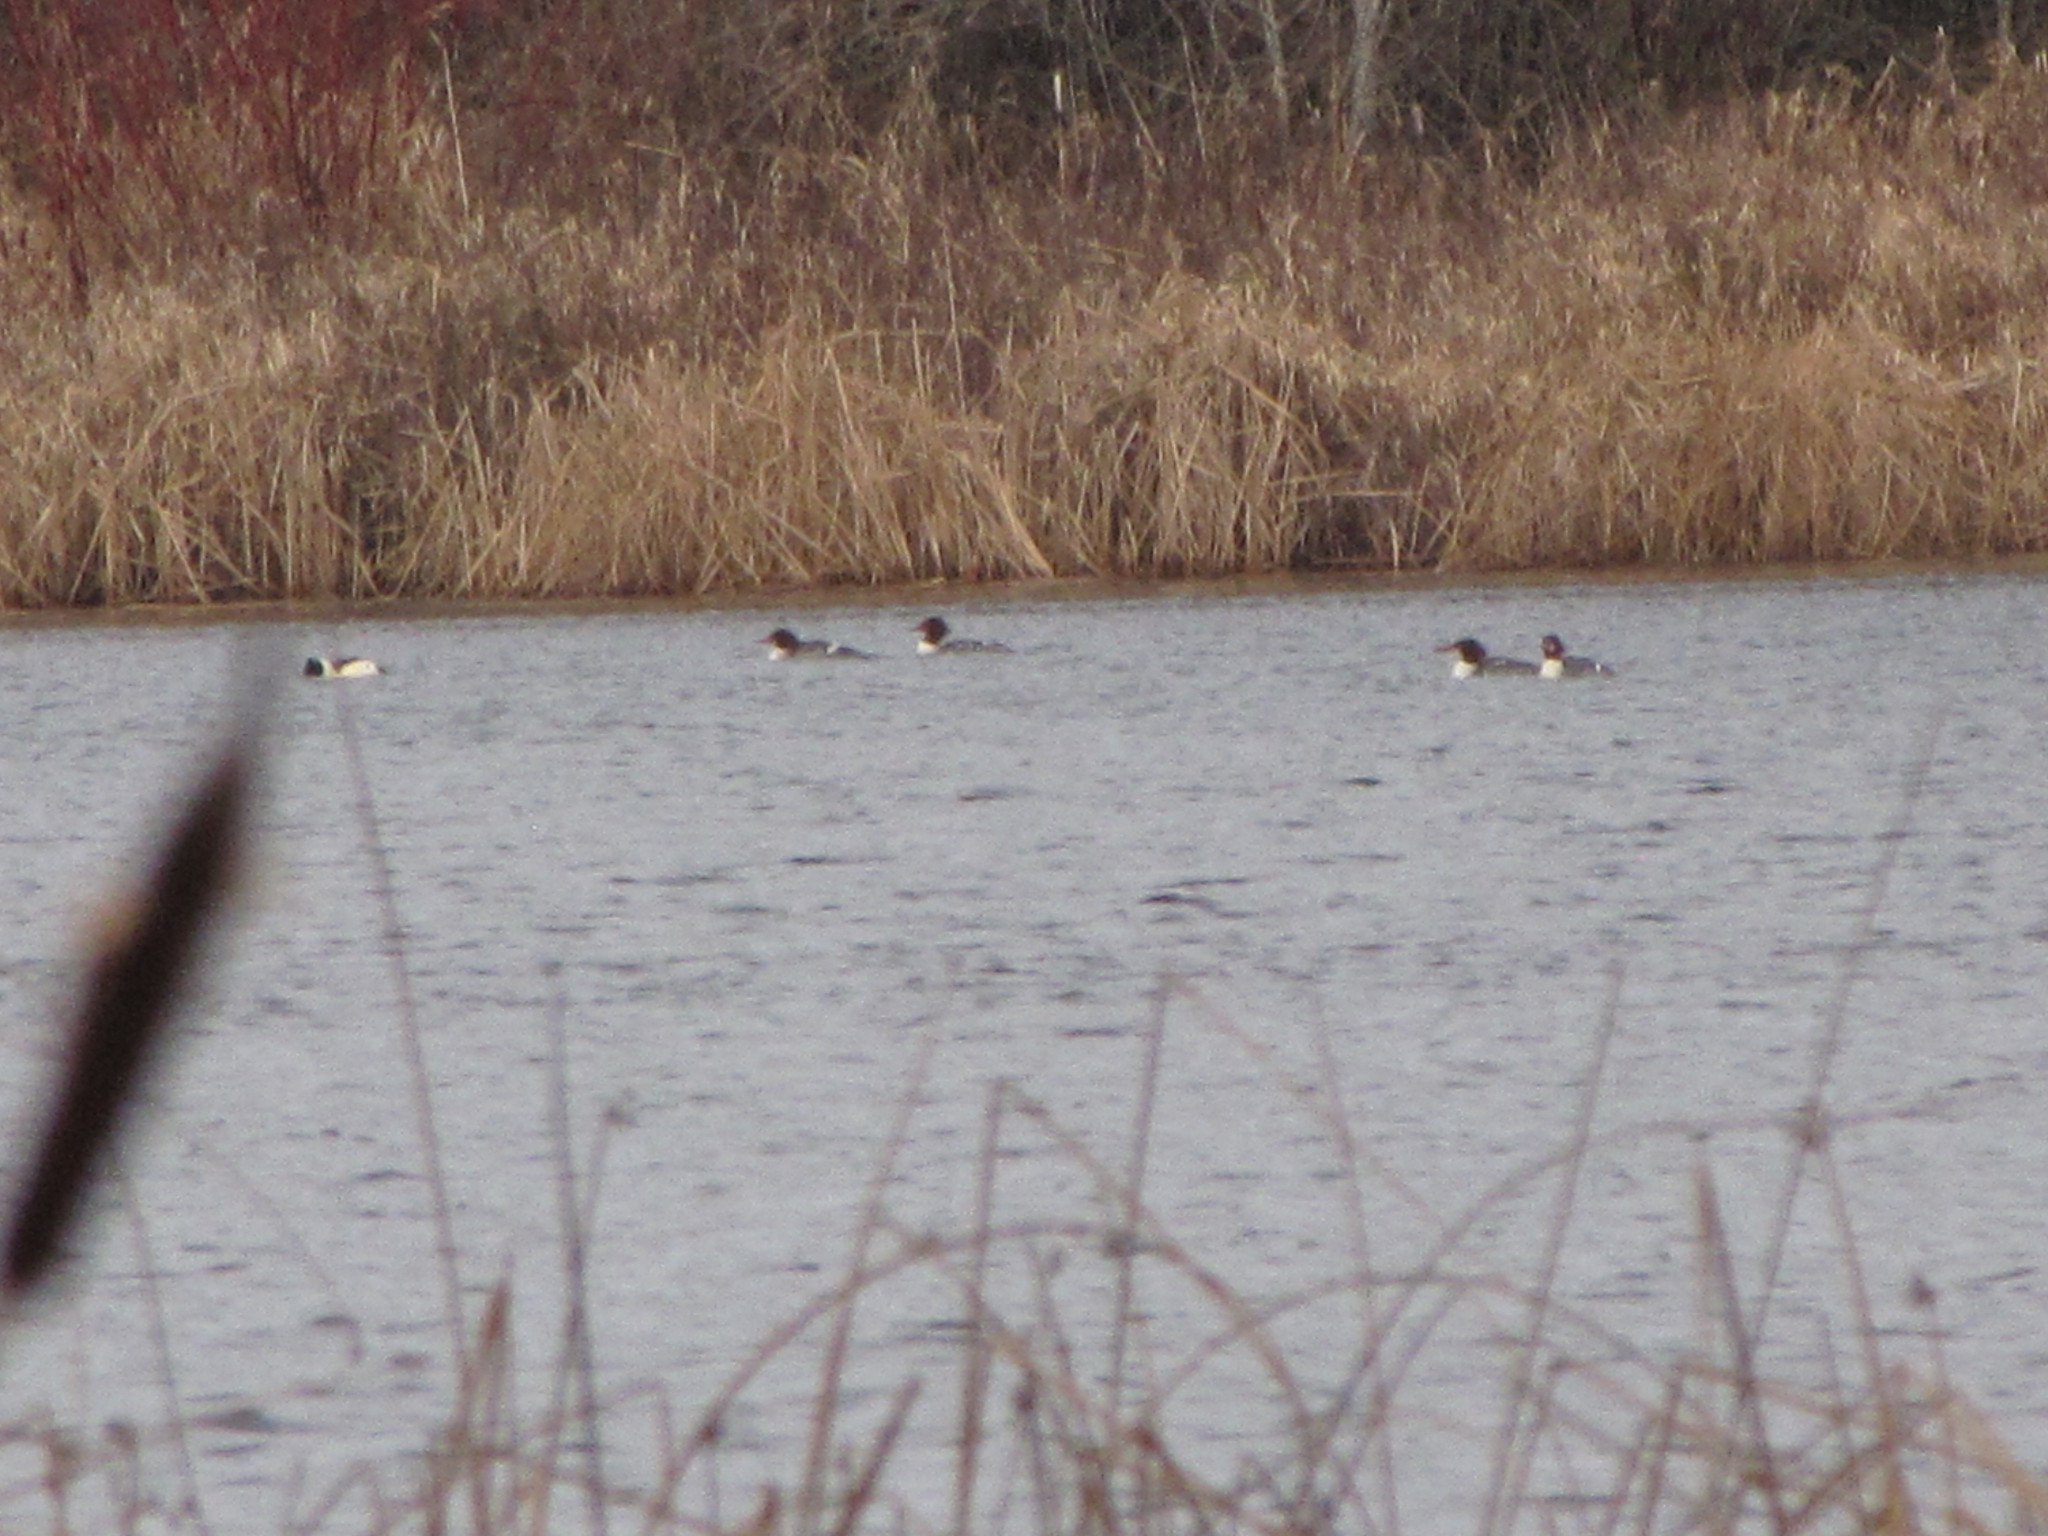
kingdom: Animalia
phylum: Chordata
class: Aves
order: Anseriformes
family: Anatidae
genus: Mergus
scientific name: Mergus merganser
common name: Common merganser
